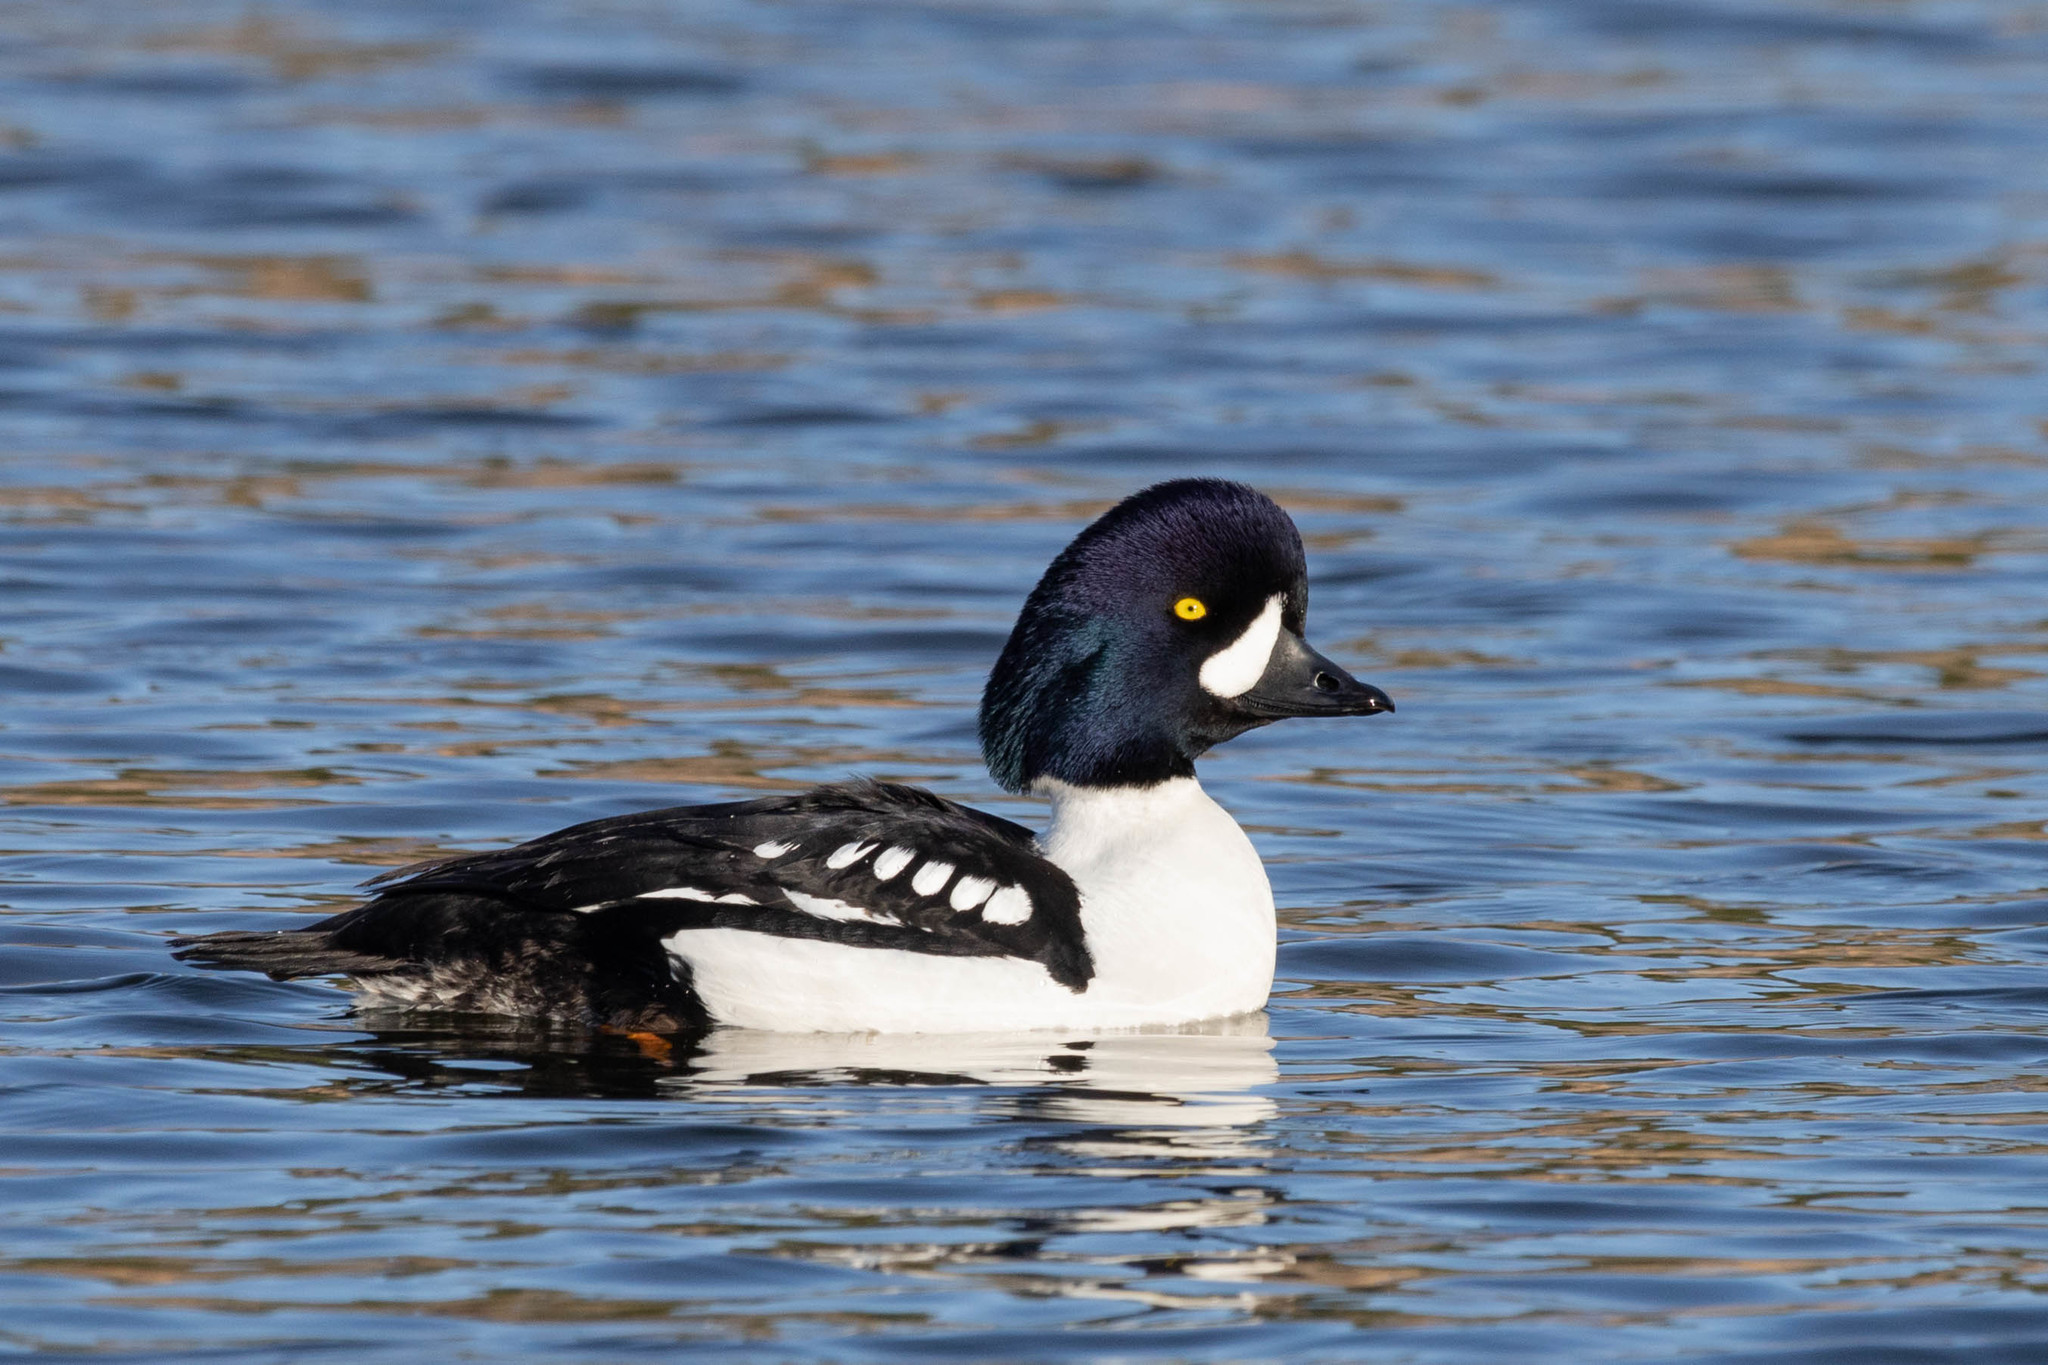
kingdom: Animalia
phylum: Chordata
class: Aves
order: Anseriformes
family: Anatidae
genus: Bucephala
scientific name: Bucephala islandica
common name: Barrow's goldeneye
